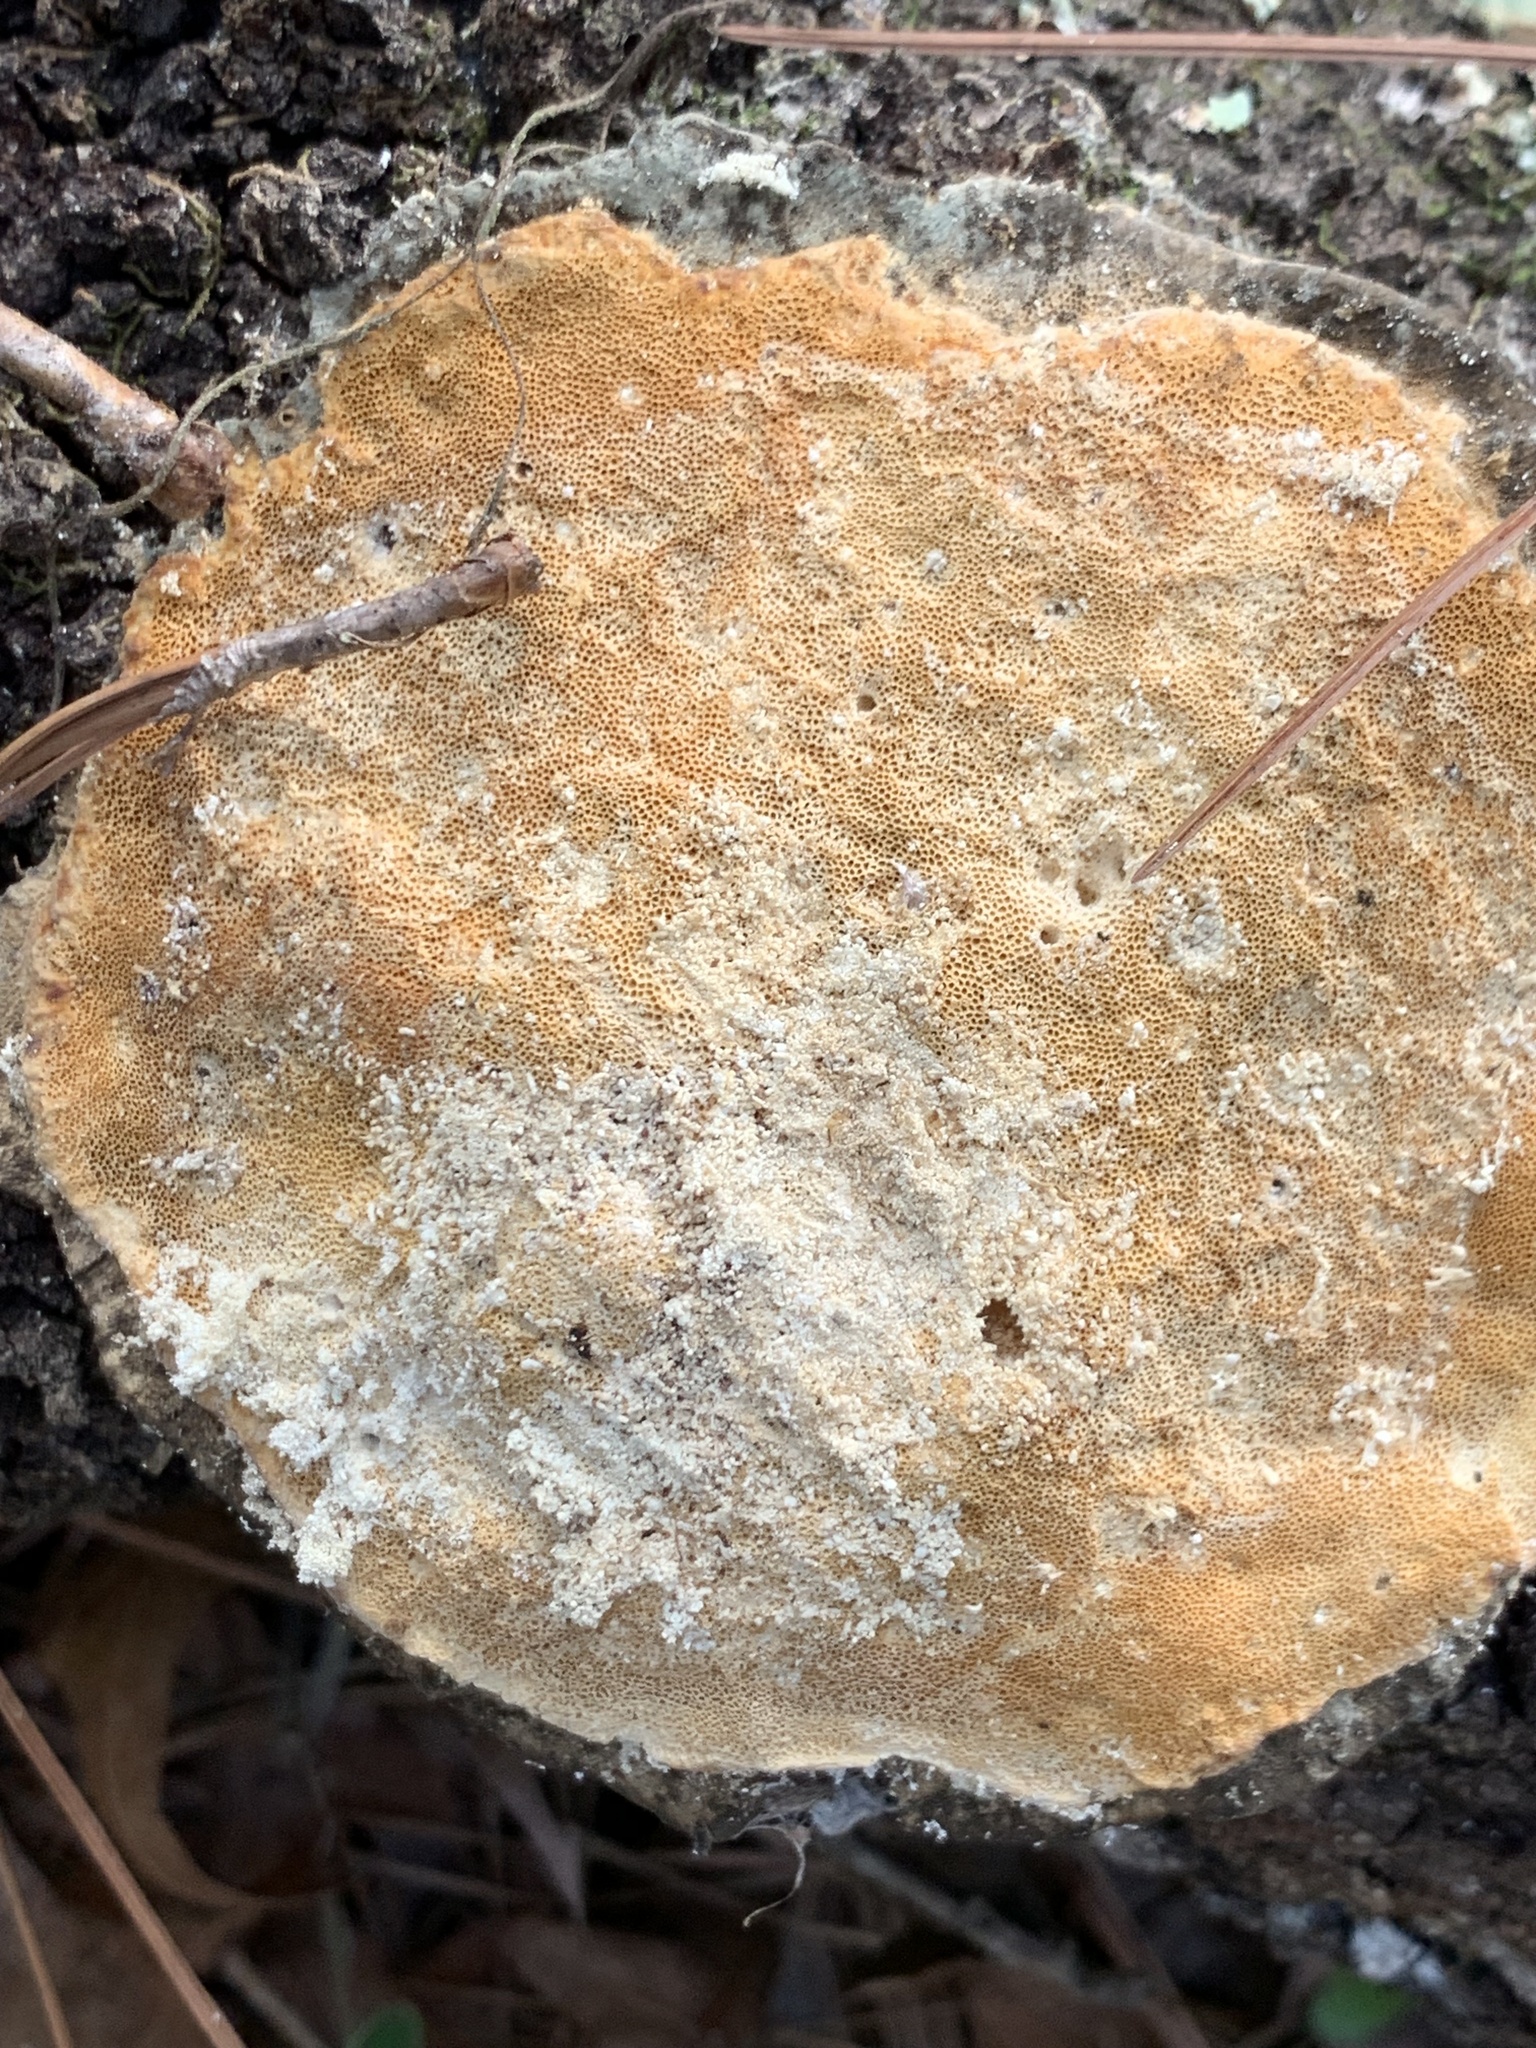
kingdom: Fungi
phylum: Basidiomycota
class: Agaricomycetes
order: Polyporales
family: Polyporaceae
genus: Trametes
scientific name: Trametes lactinea
